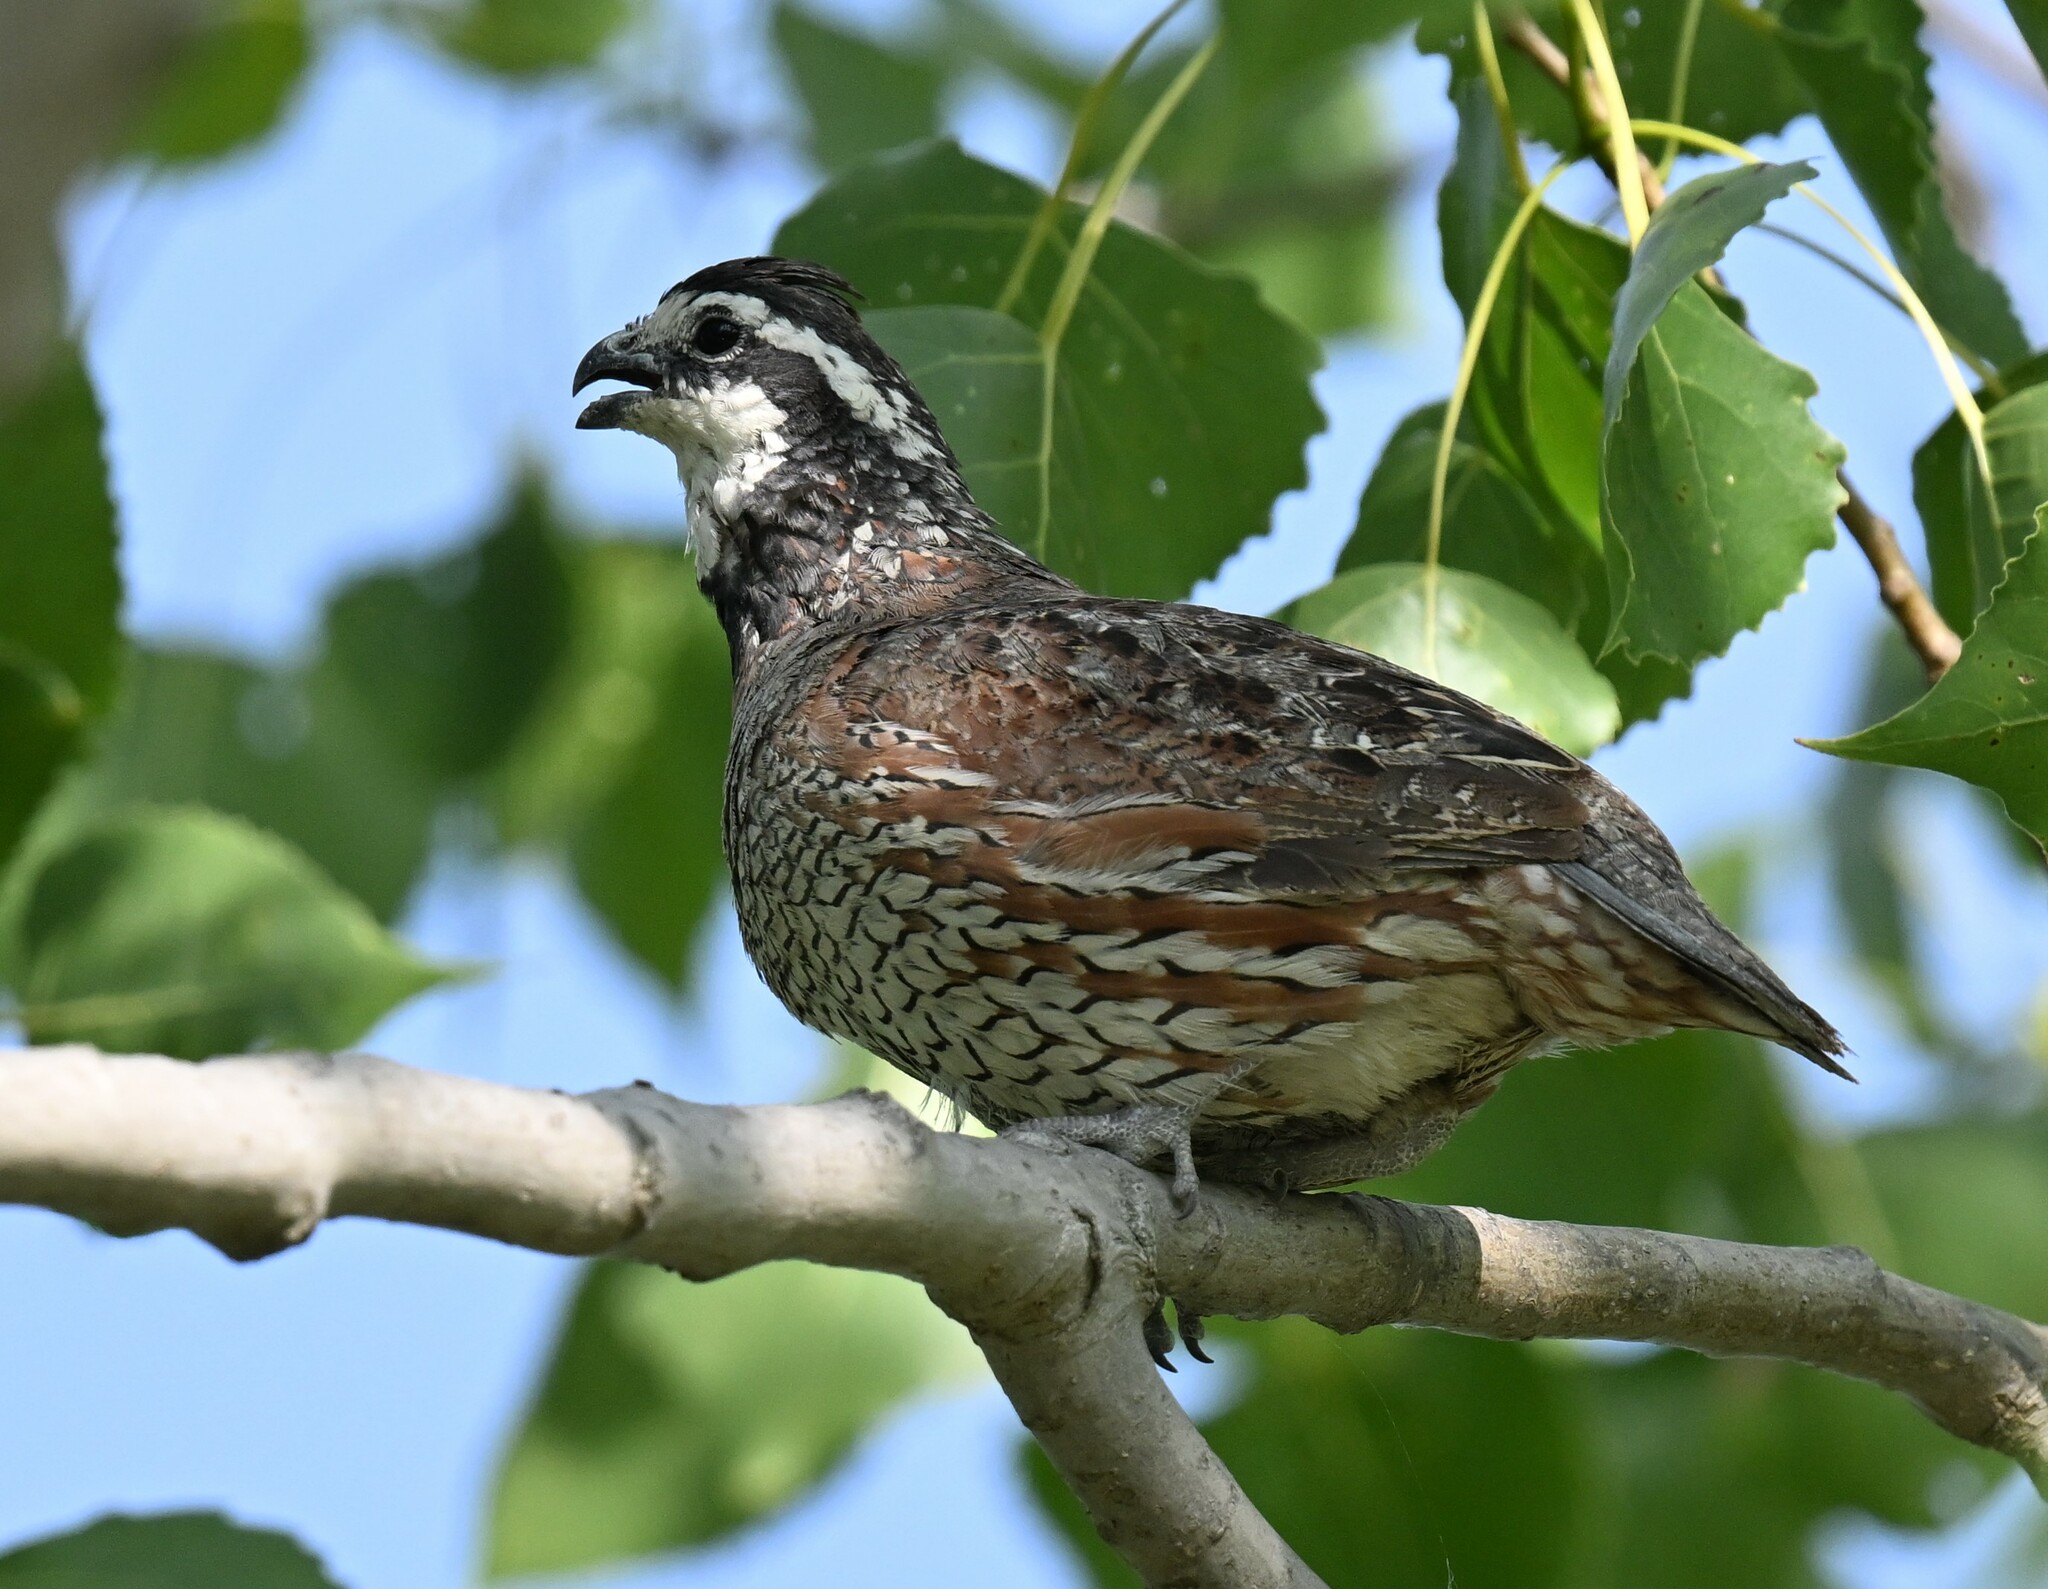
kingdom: Animalia
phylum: Chordata
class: Aves
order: Galliformes
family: Odontophoridae
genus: Colinus
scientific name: Colinus virginianus
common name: Northern bobwhite
